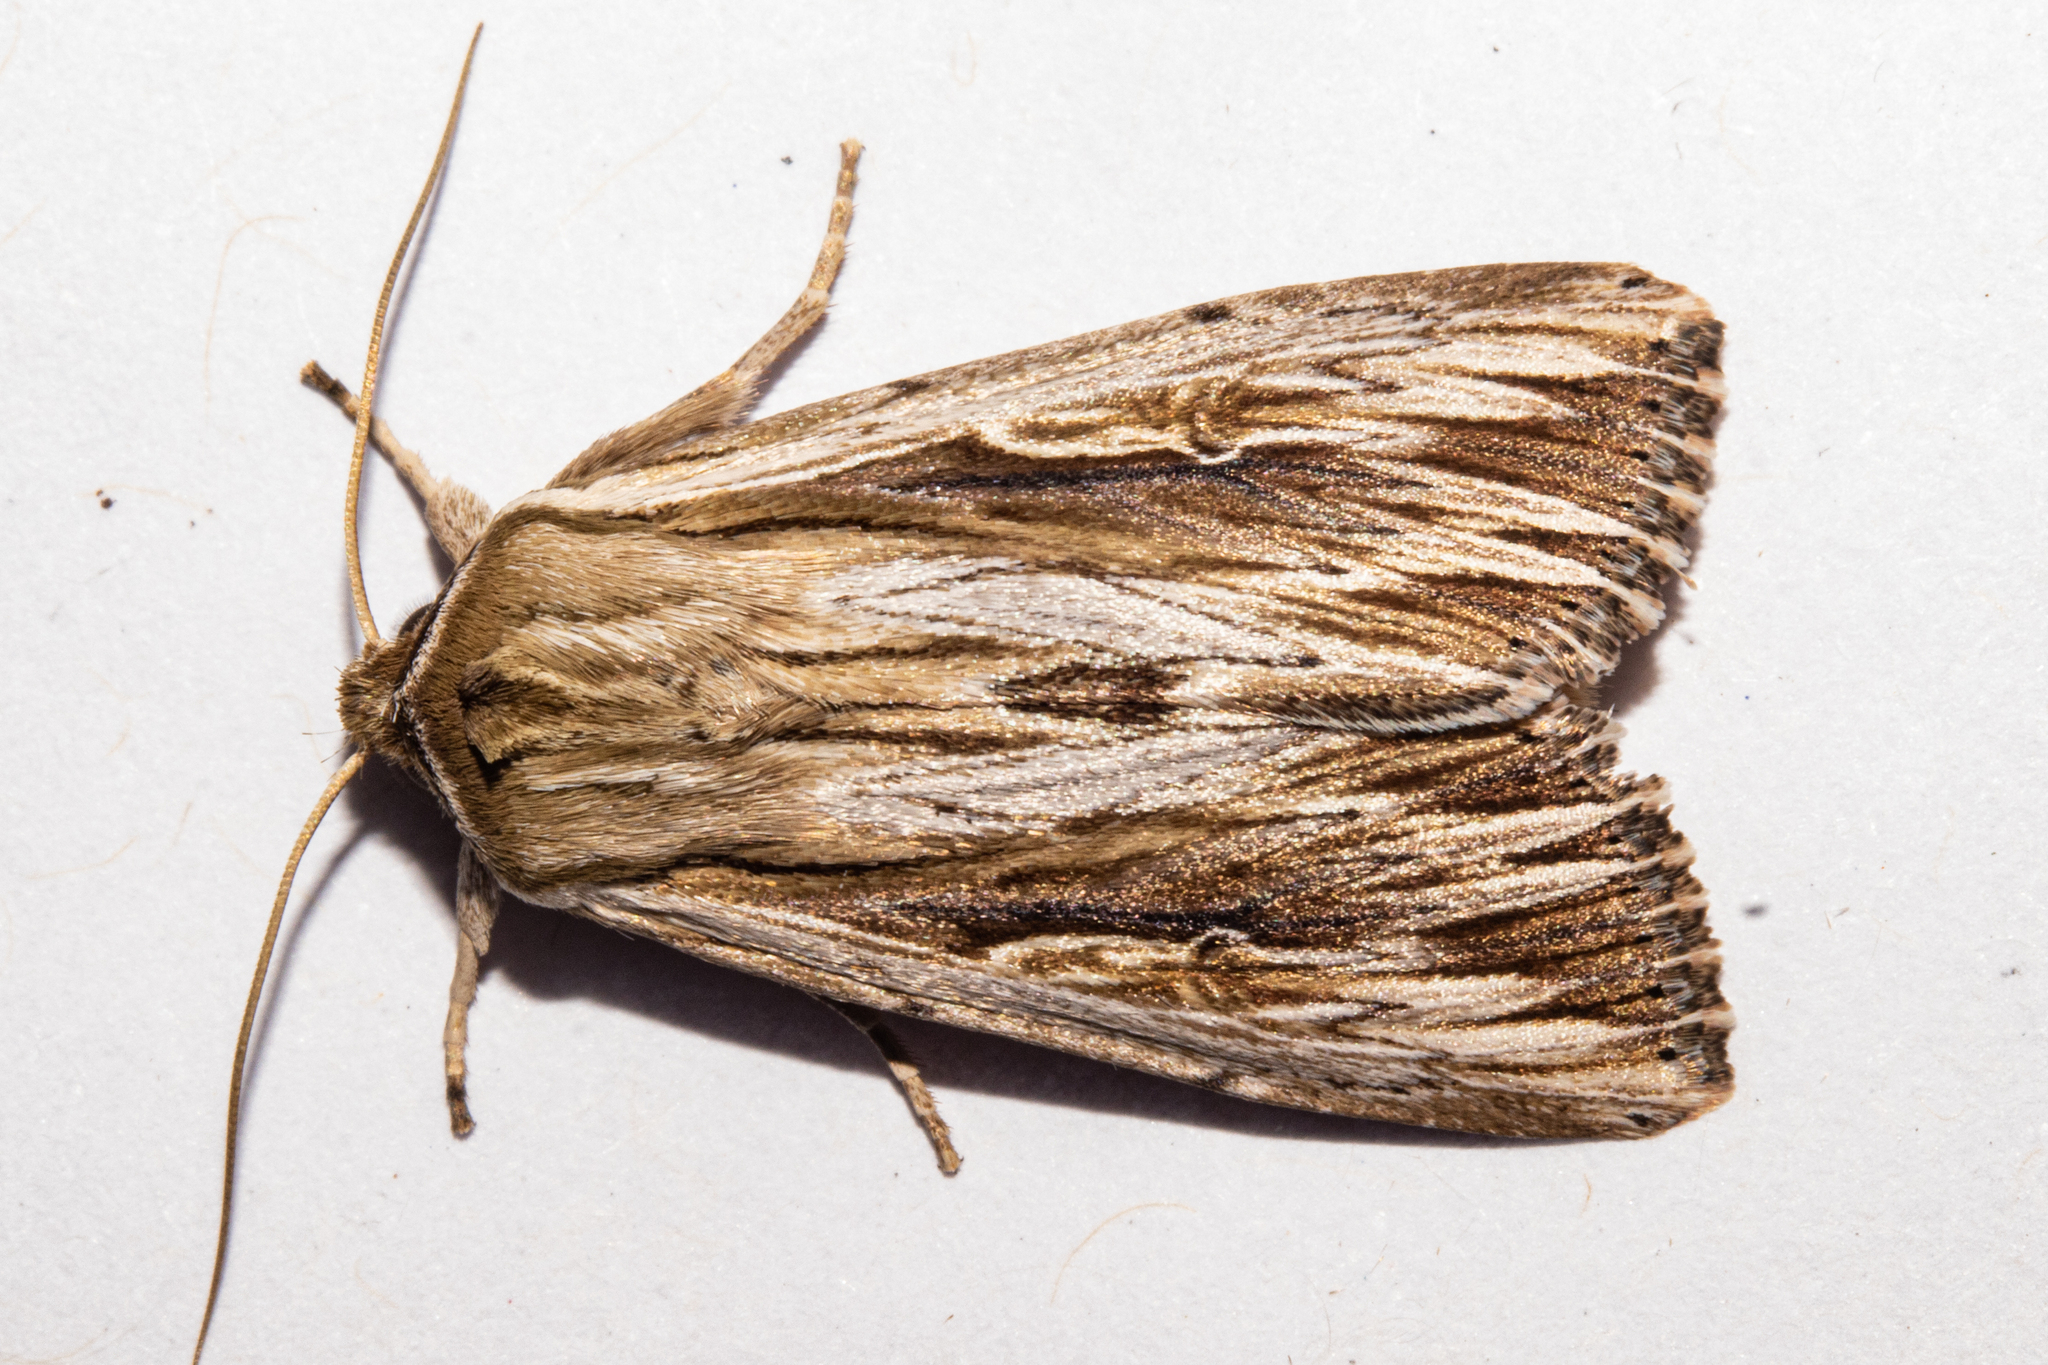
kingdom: Animalia
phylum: Arthropoda
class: Insecta
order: Lepidoptera
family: Noctuidae
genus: Persectania
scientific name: Persectania aversa
